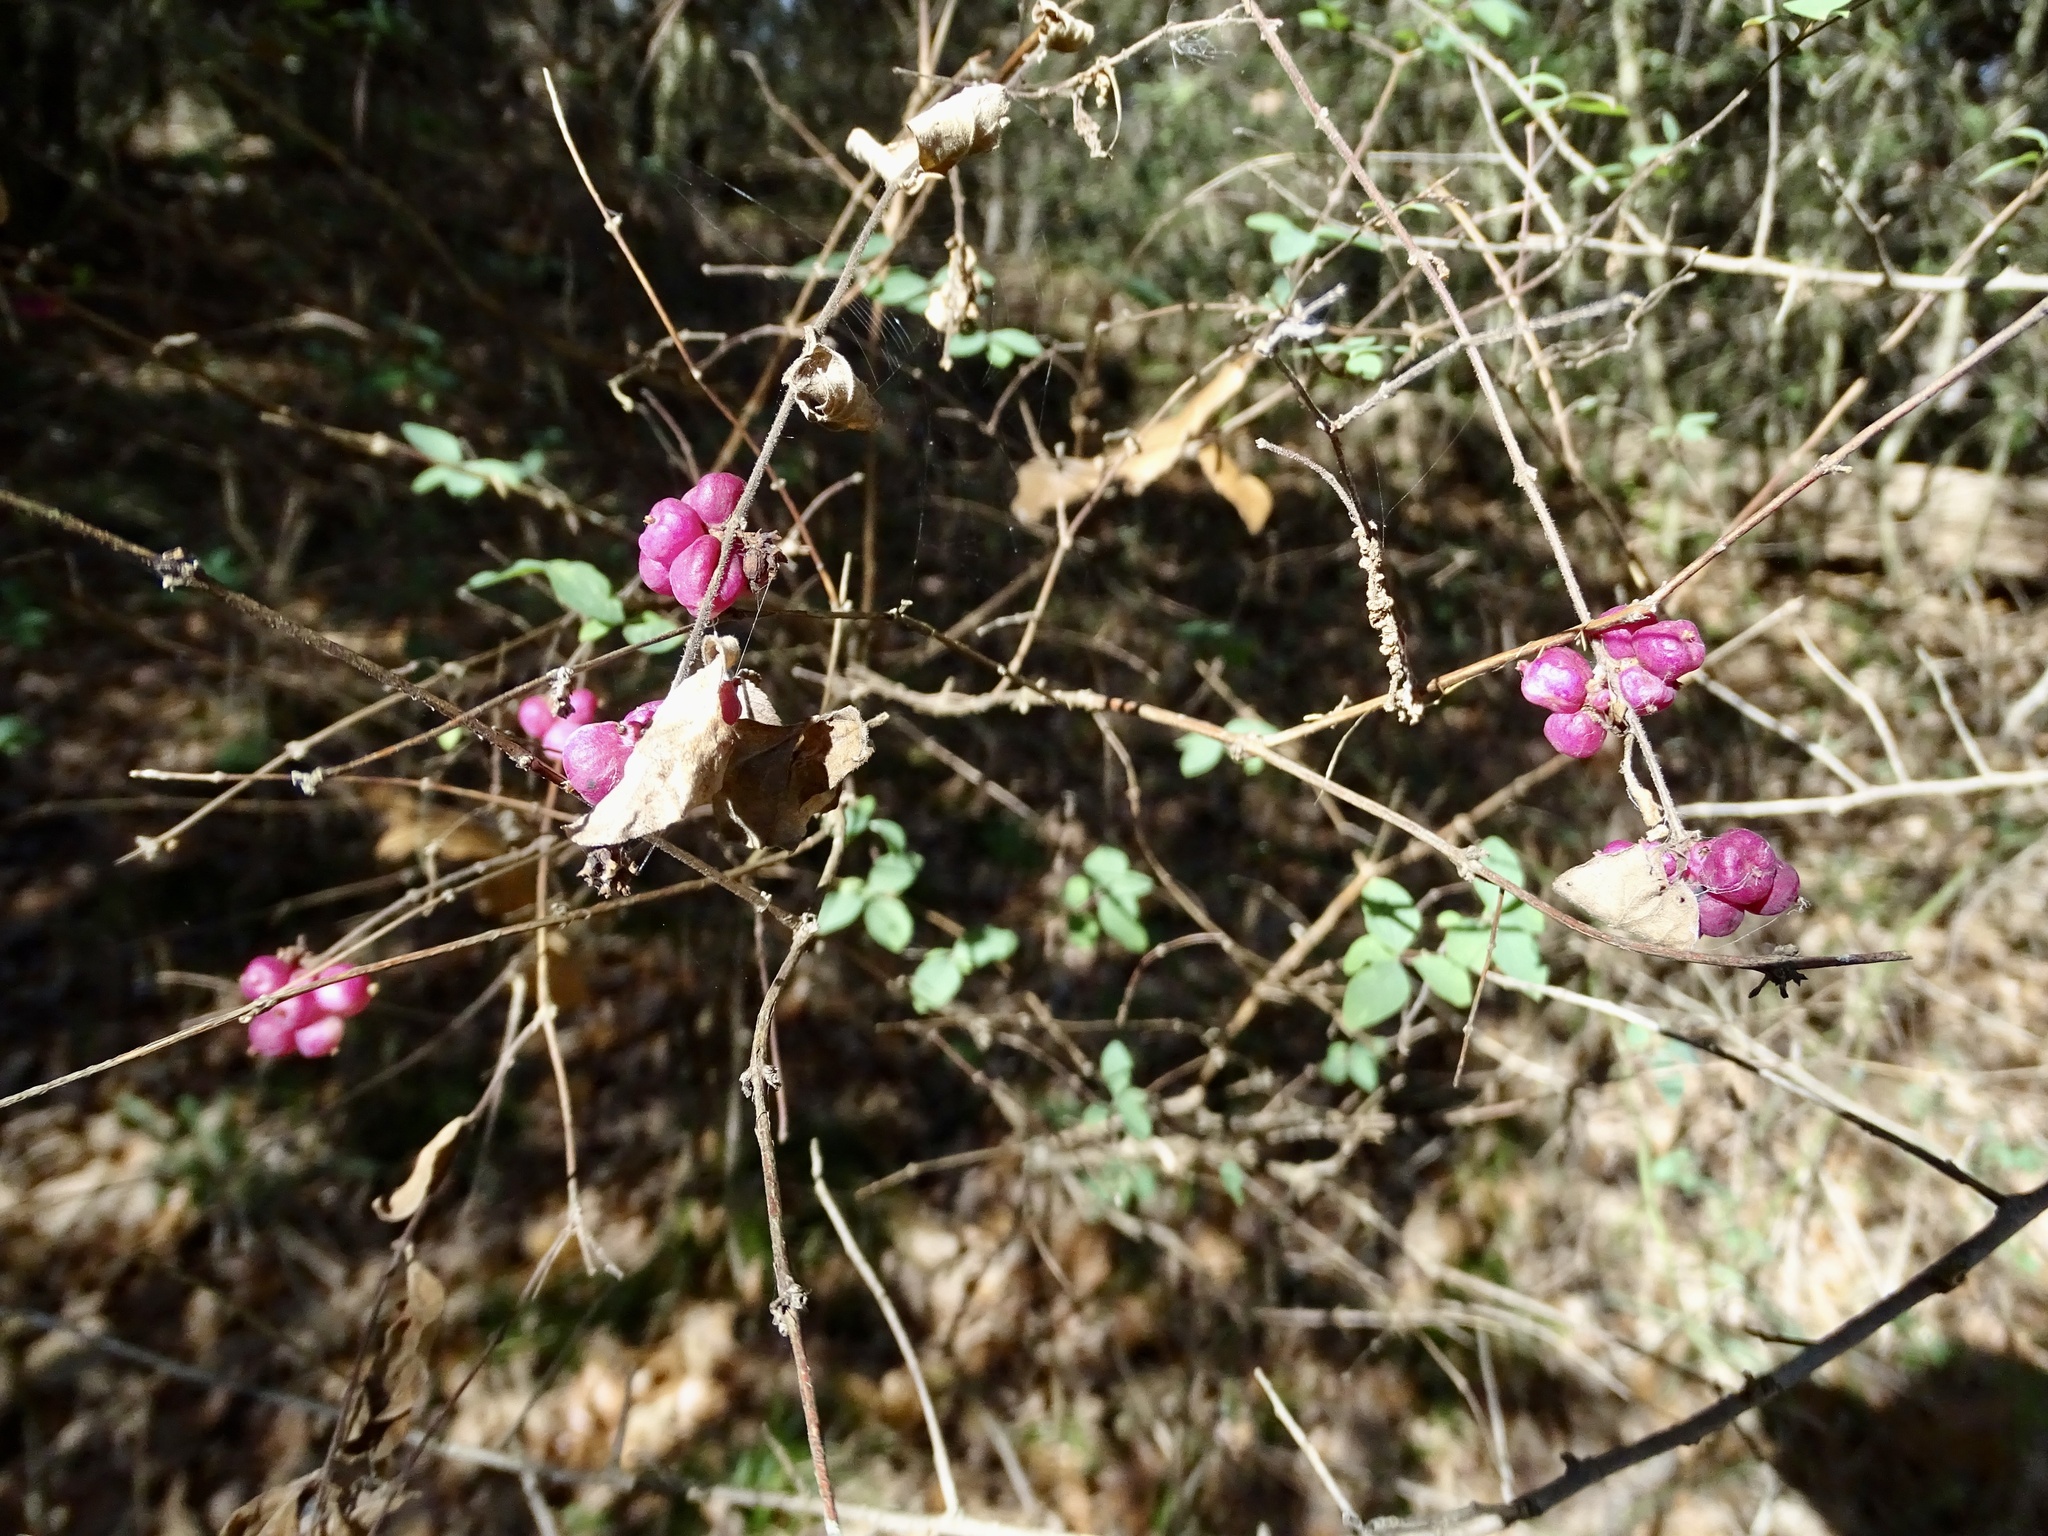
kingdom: Plantae
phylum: Tracheophyta
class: Magnoliopsida
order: Dipsacales
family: Caprifoliaceae
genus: Symphoricarpos
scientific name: Symphoricarpos orbiculatus
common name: Coralberry
